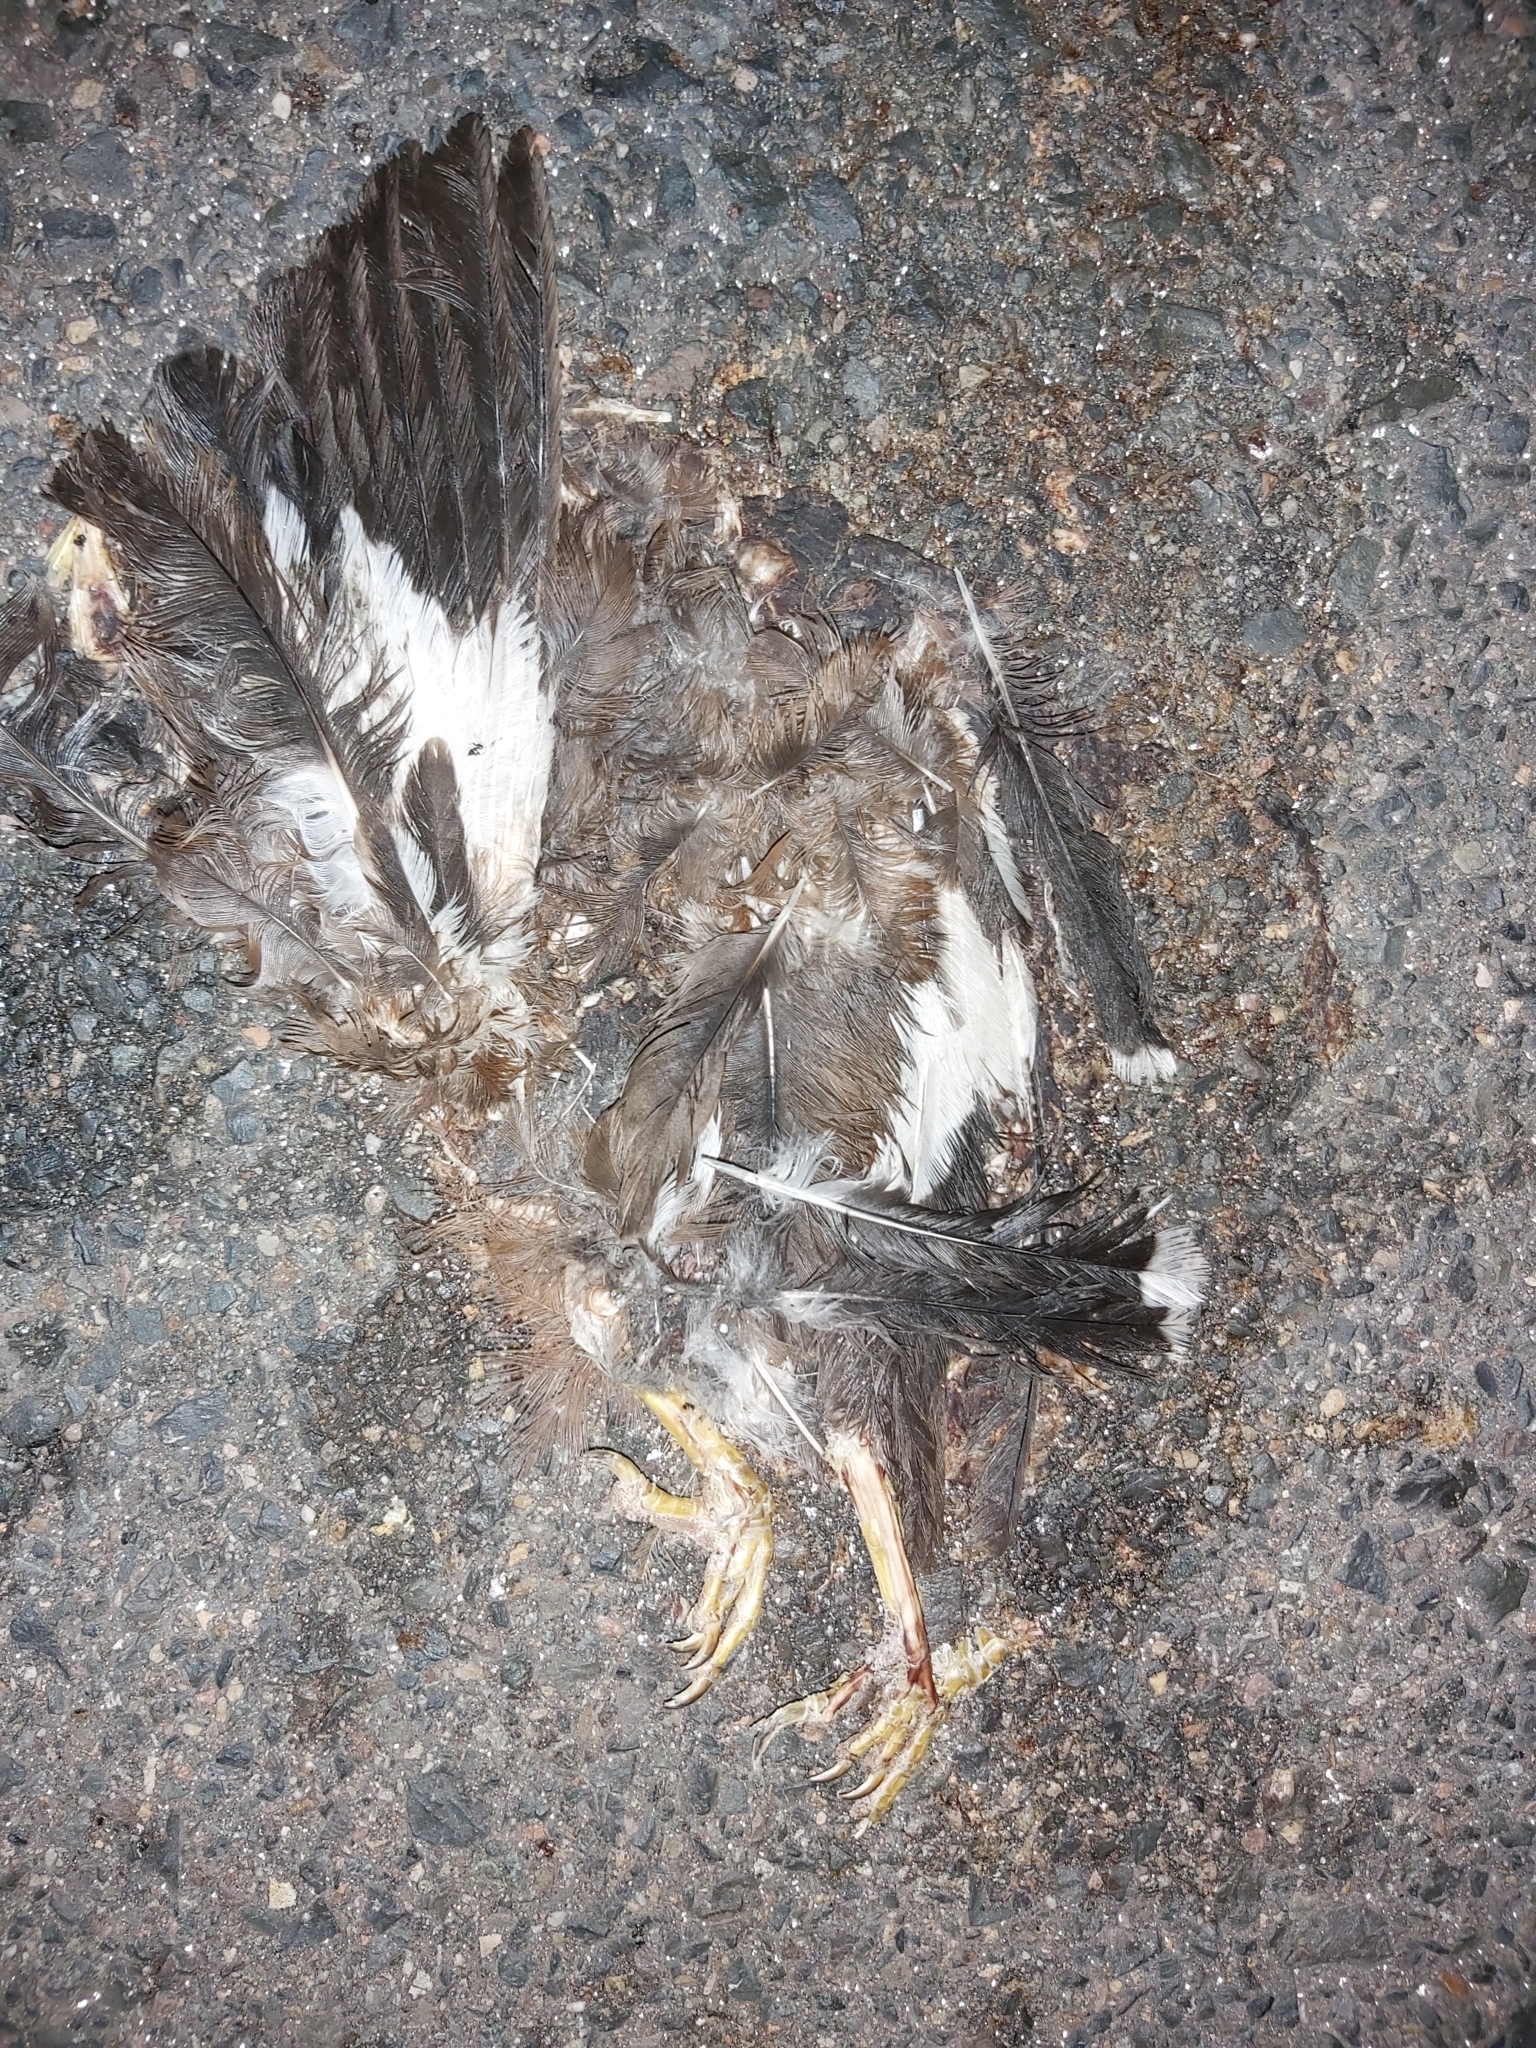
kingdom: Animalia
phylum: Chordata
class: Aves
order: Passeriformes
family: Sturnidae
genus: Acridotheres
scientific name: Acridotheres tristis
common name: Common myna
